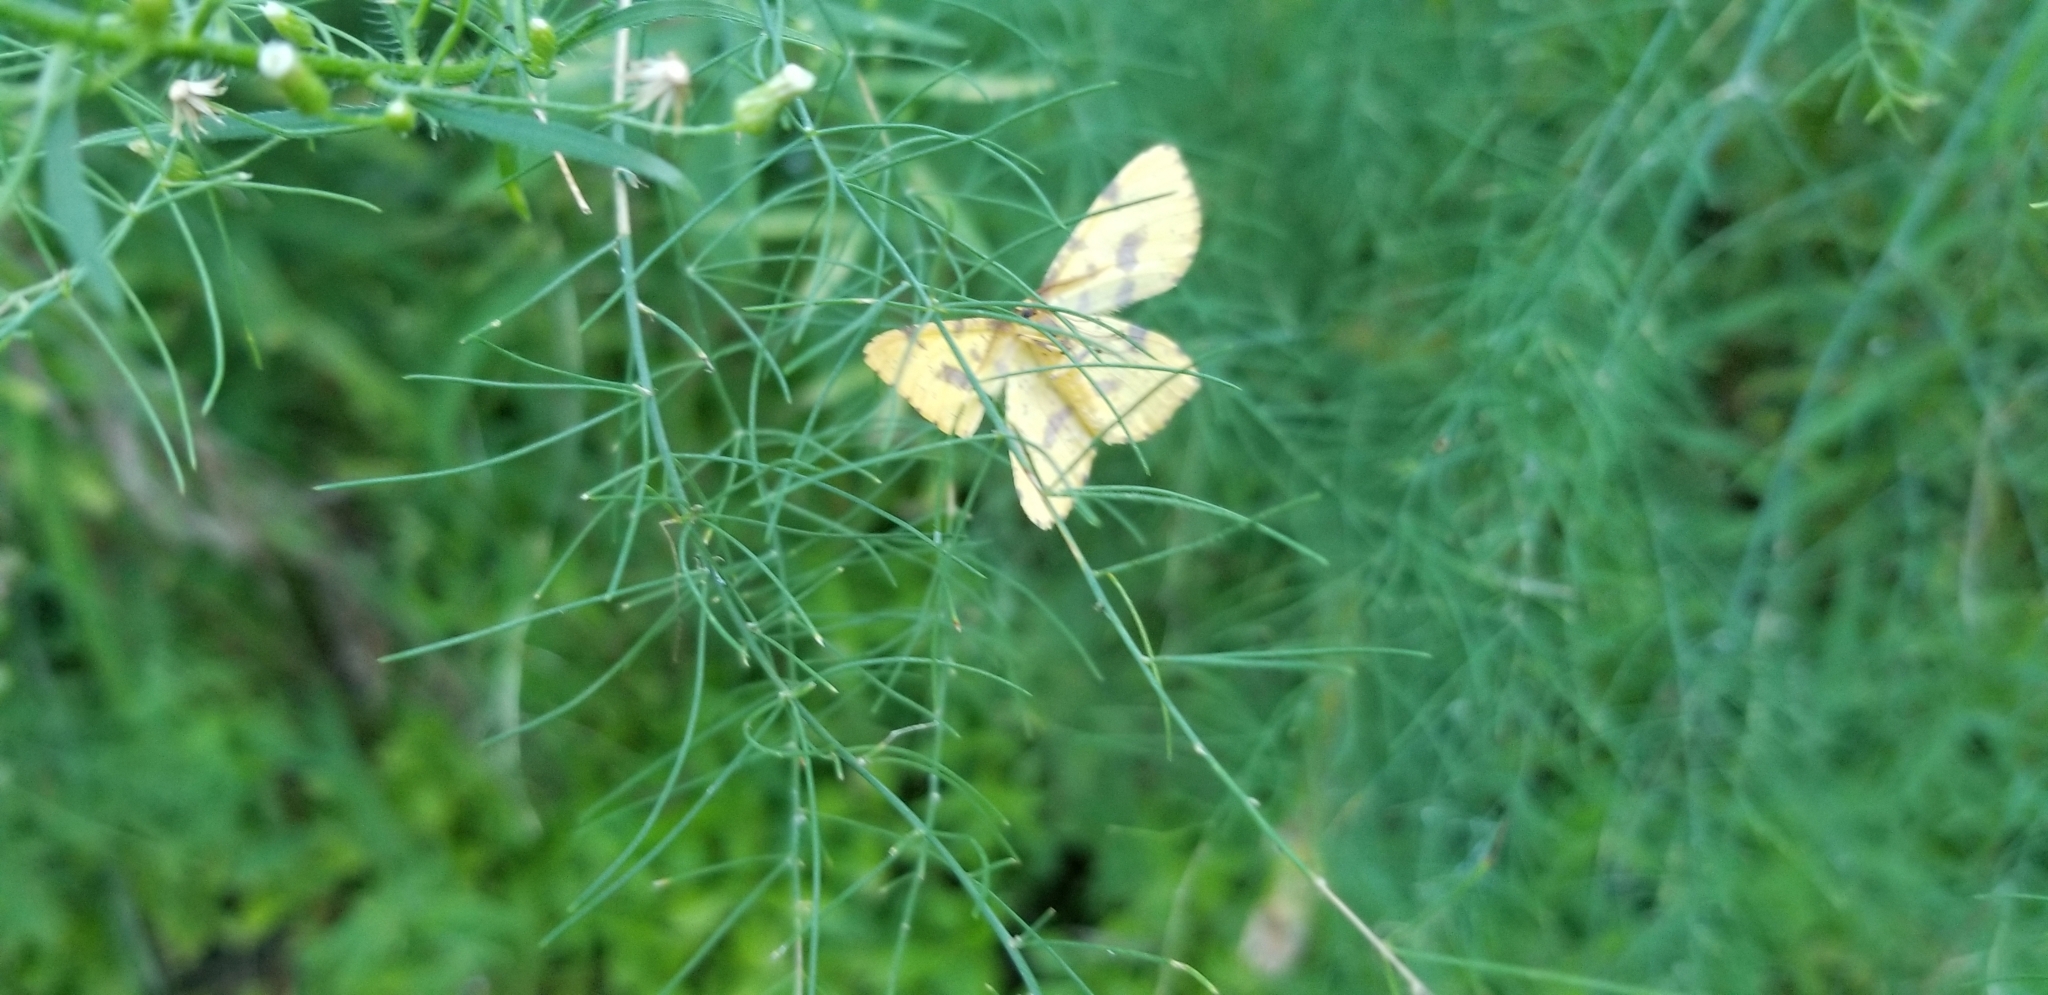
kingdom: Animalia
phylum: Arthropoda
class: Insecta
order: Lepidoptera
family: Geometridae
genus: Xanthotype
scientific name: Xanthotype
